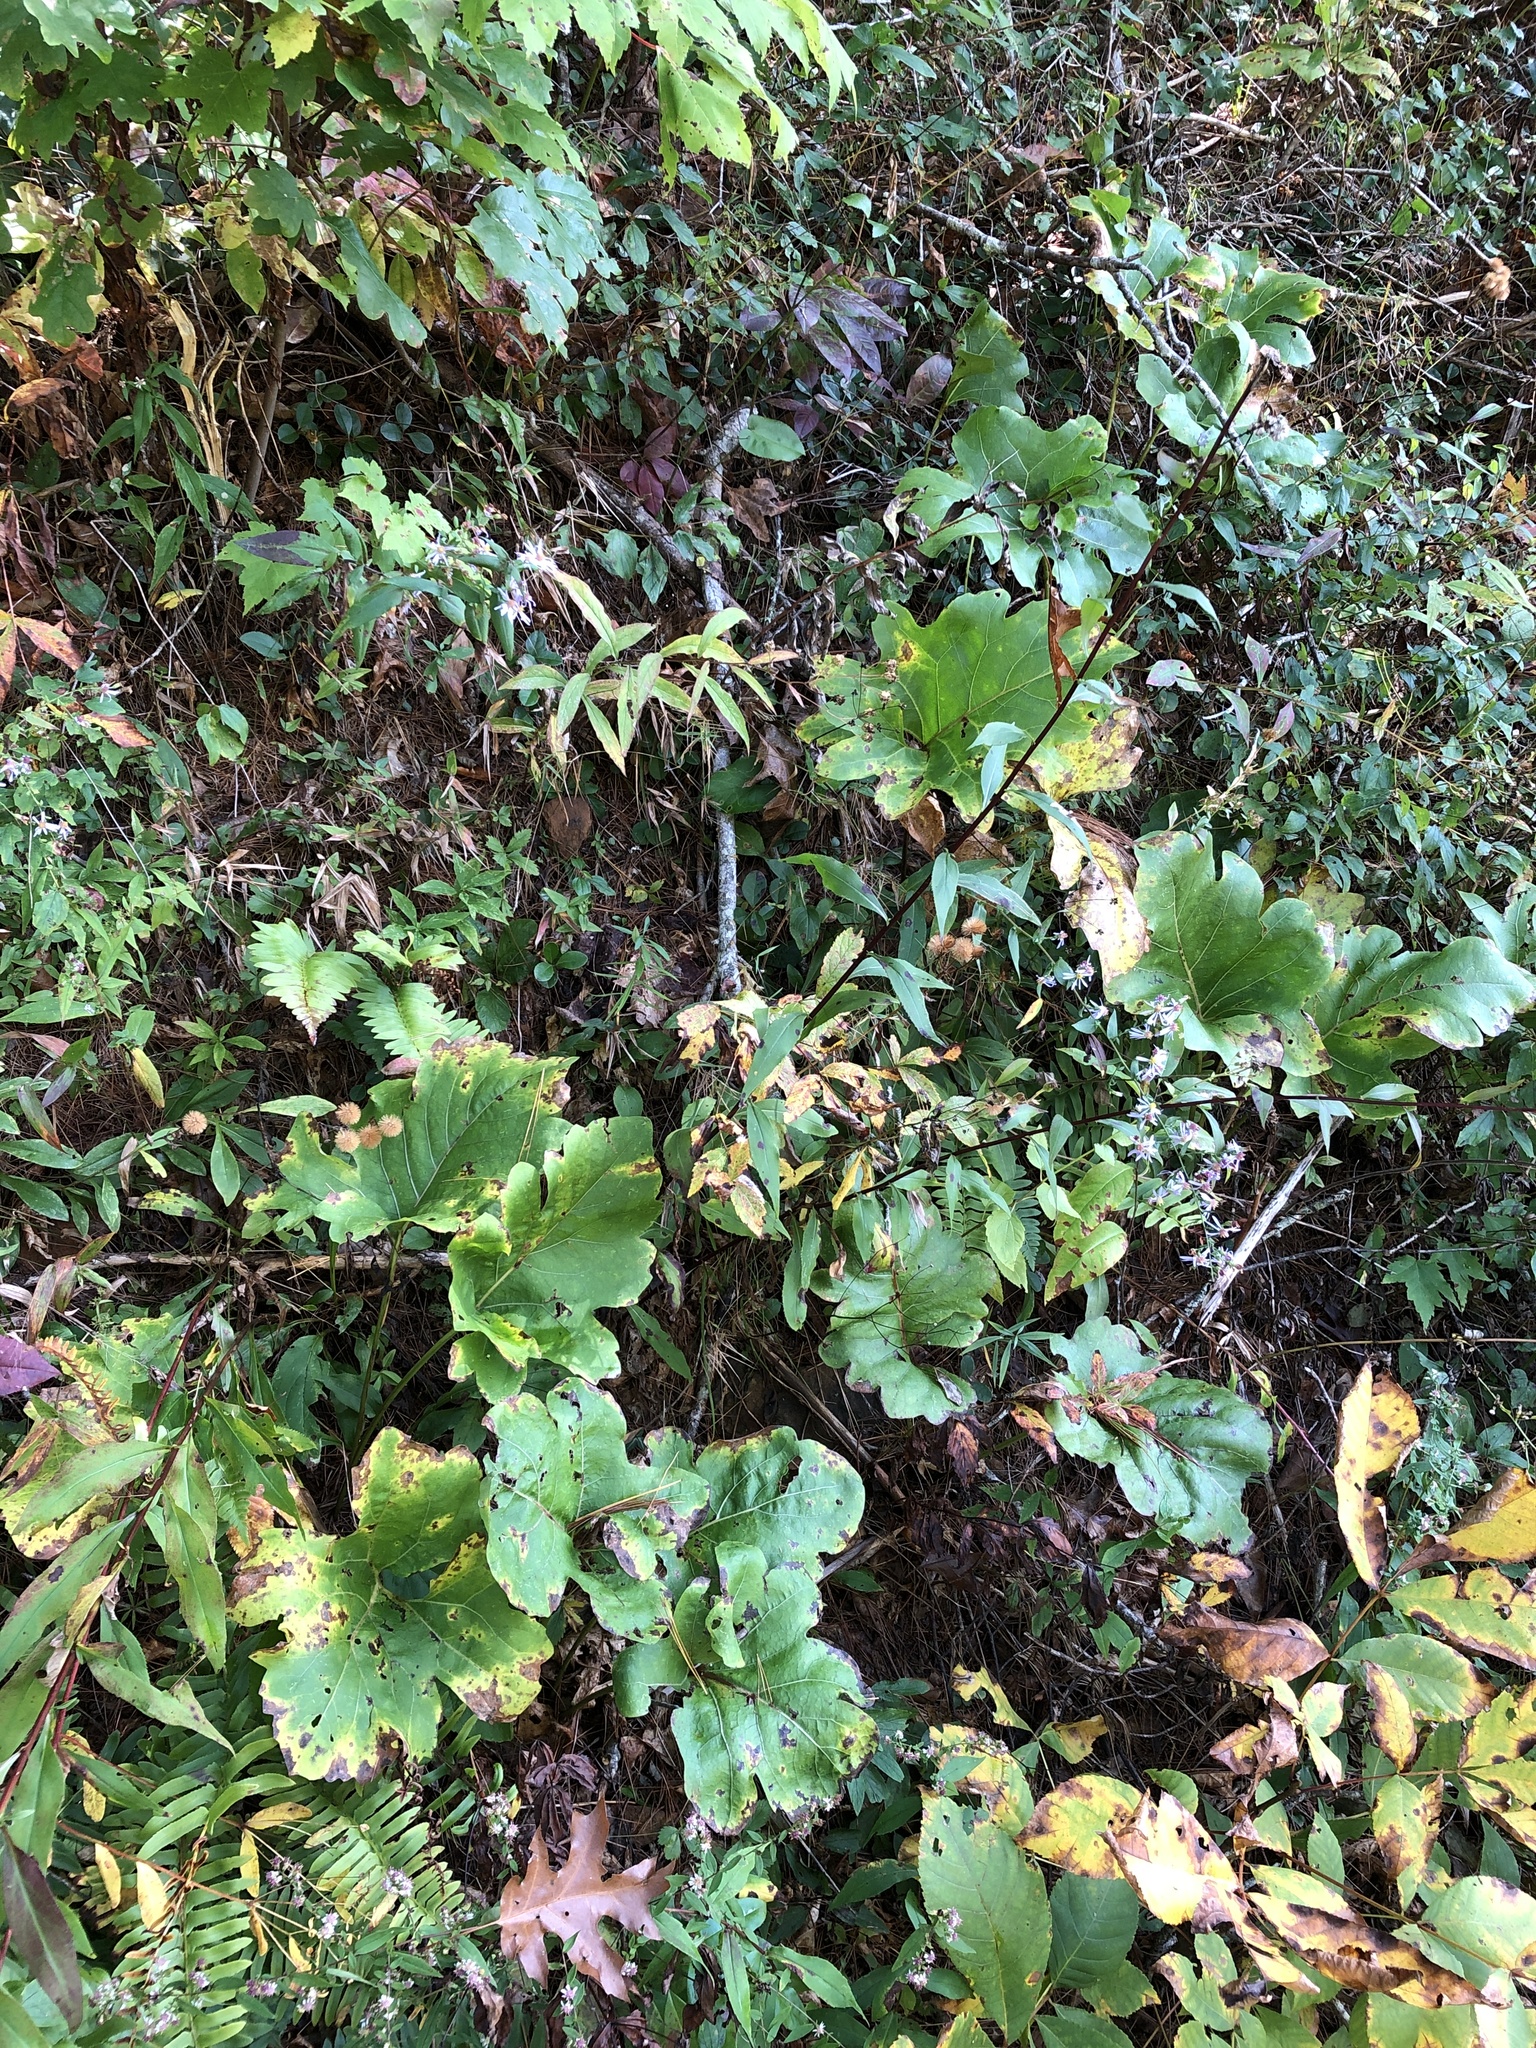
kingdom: Plantae
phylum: Tracheophyta
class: Magnoliopsida
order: Asterales
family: Asteraceae
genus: Silphium
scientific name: Silphium compositum
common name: Lesser basal-leaf rosinweed
